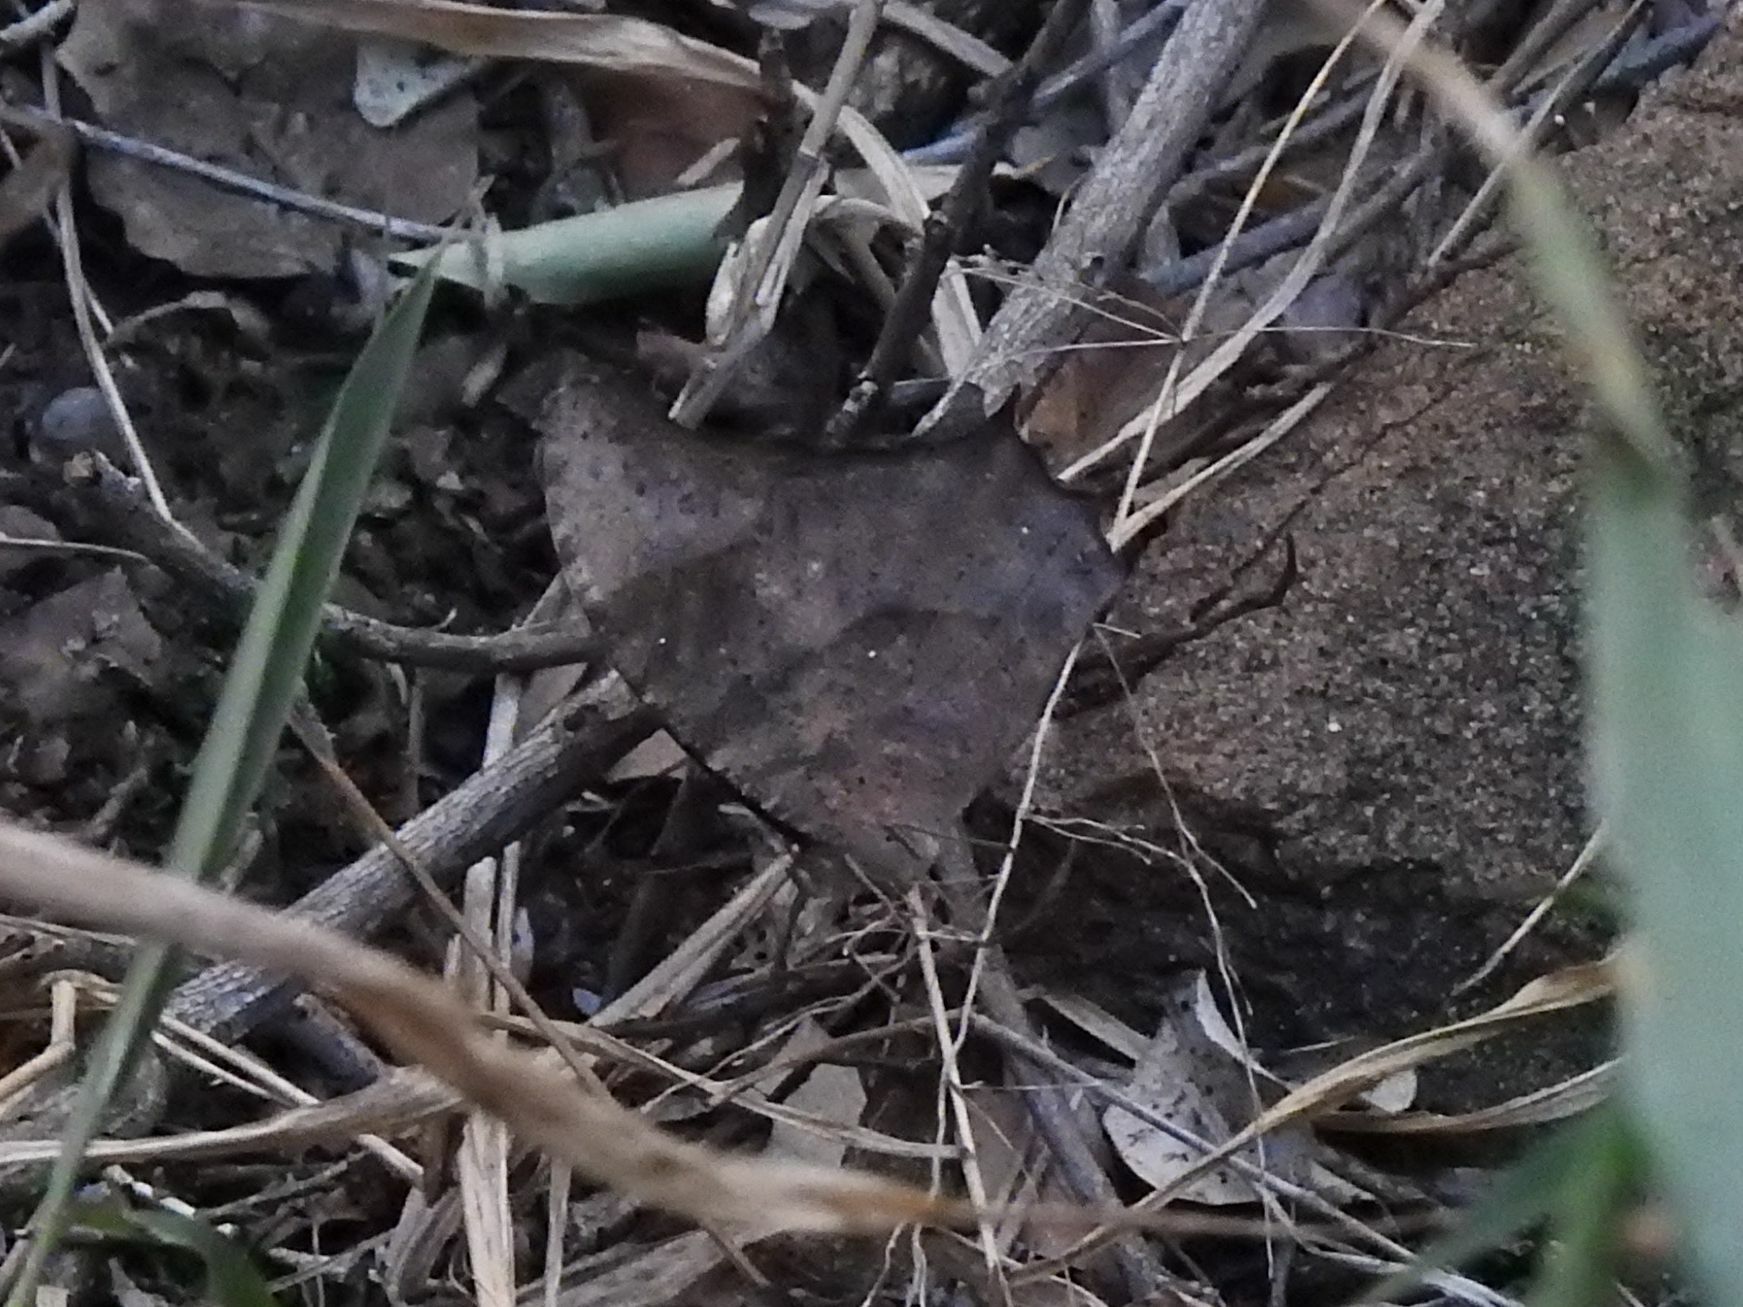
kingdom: Animalia
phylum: Arthropoda
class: Insecta
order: Lepidoptera
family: Nymphalidae
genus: Melanitis
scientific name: Melanitis leda
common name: Twilight brown
